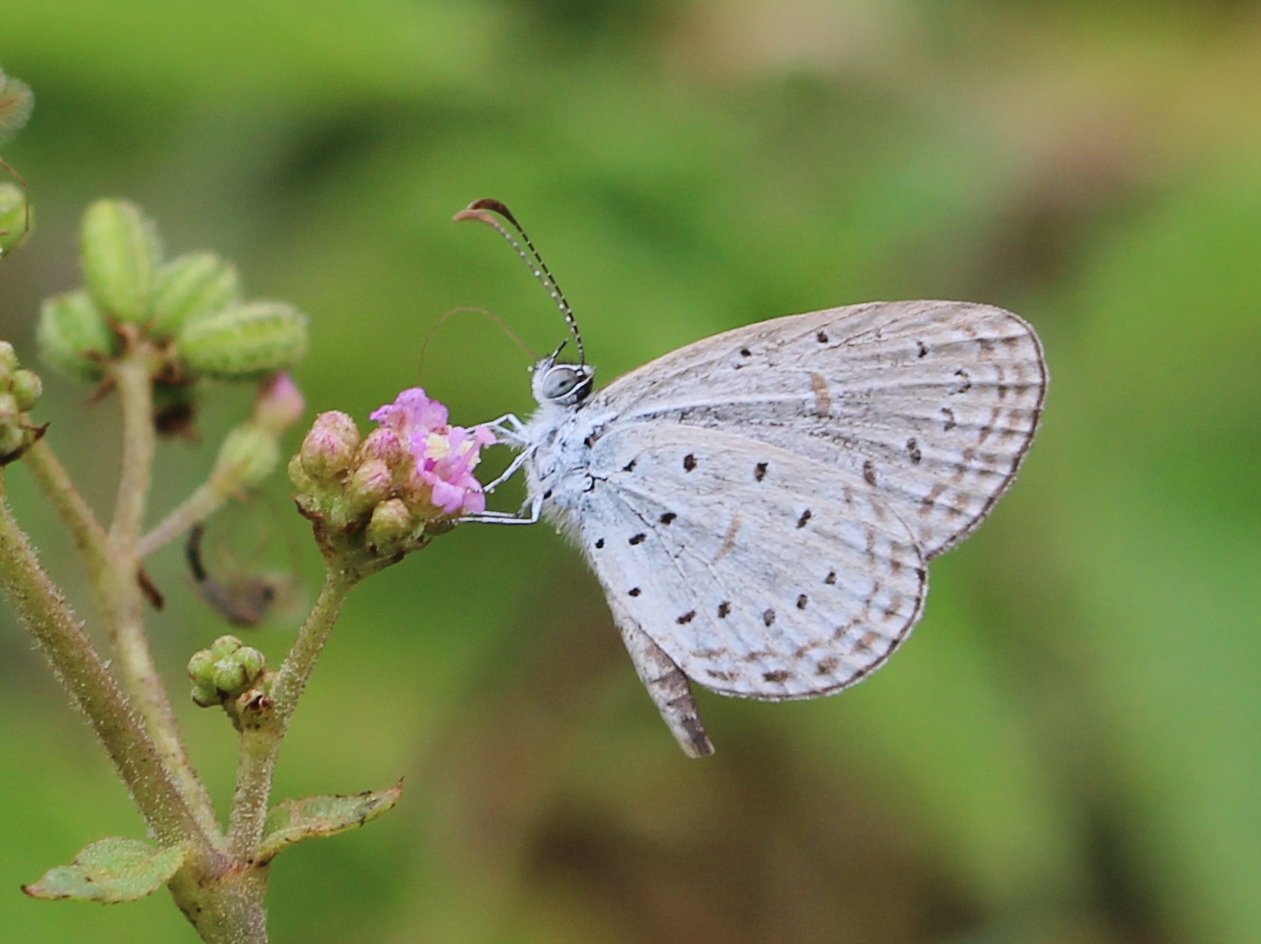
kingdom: Animalia
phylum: Arthropoda
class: Insecta
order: Lepidoptera
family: Lycaenidae
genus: Zizula
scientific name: Zizula hylax
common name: Gaika blue
